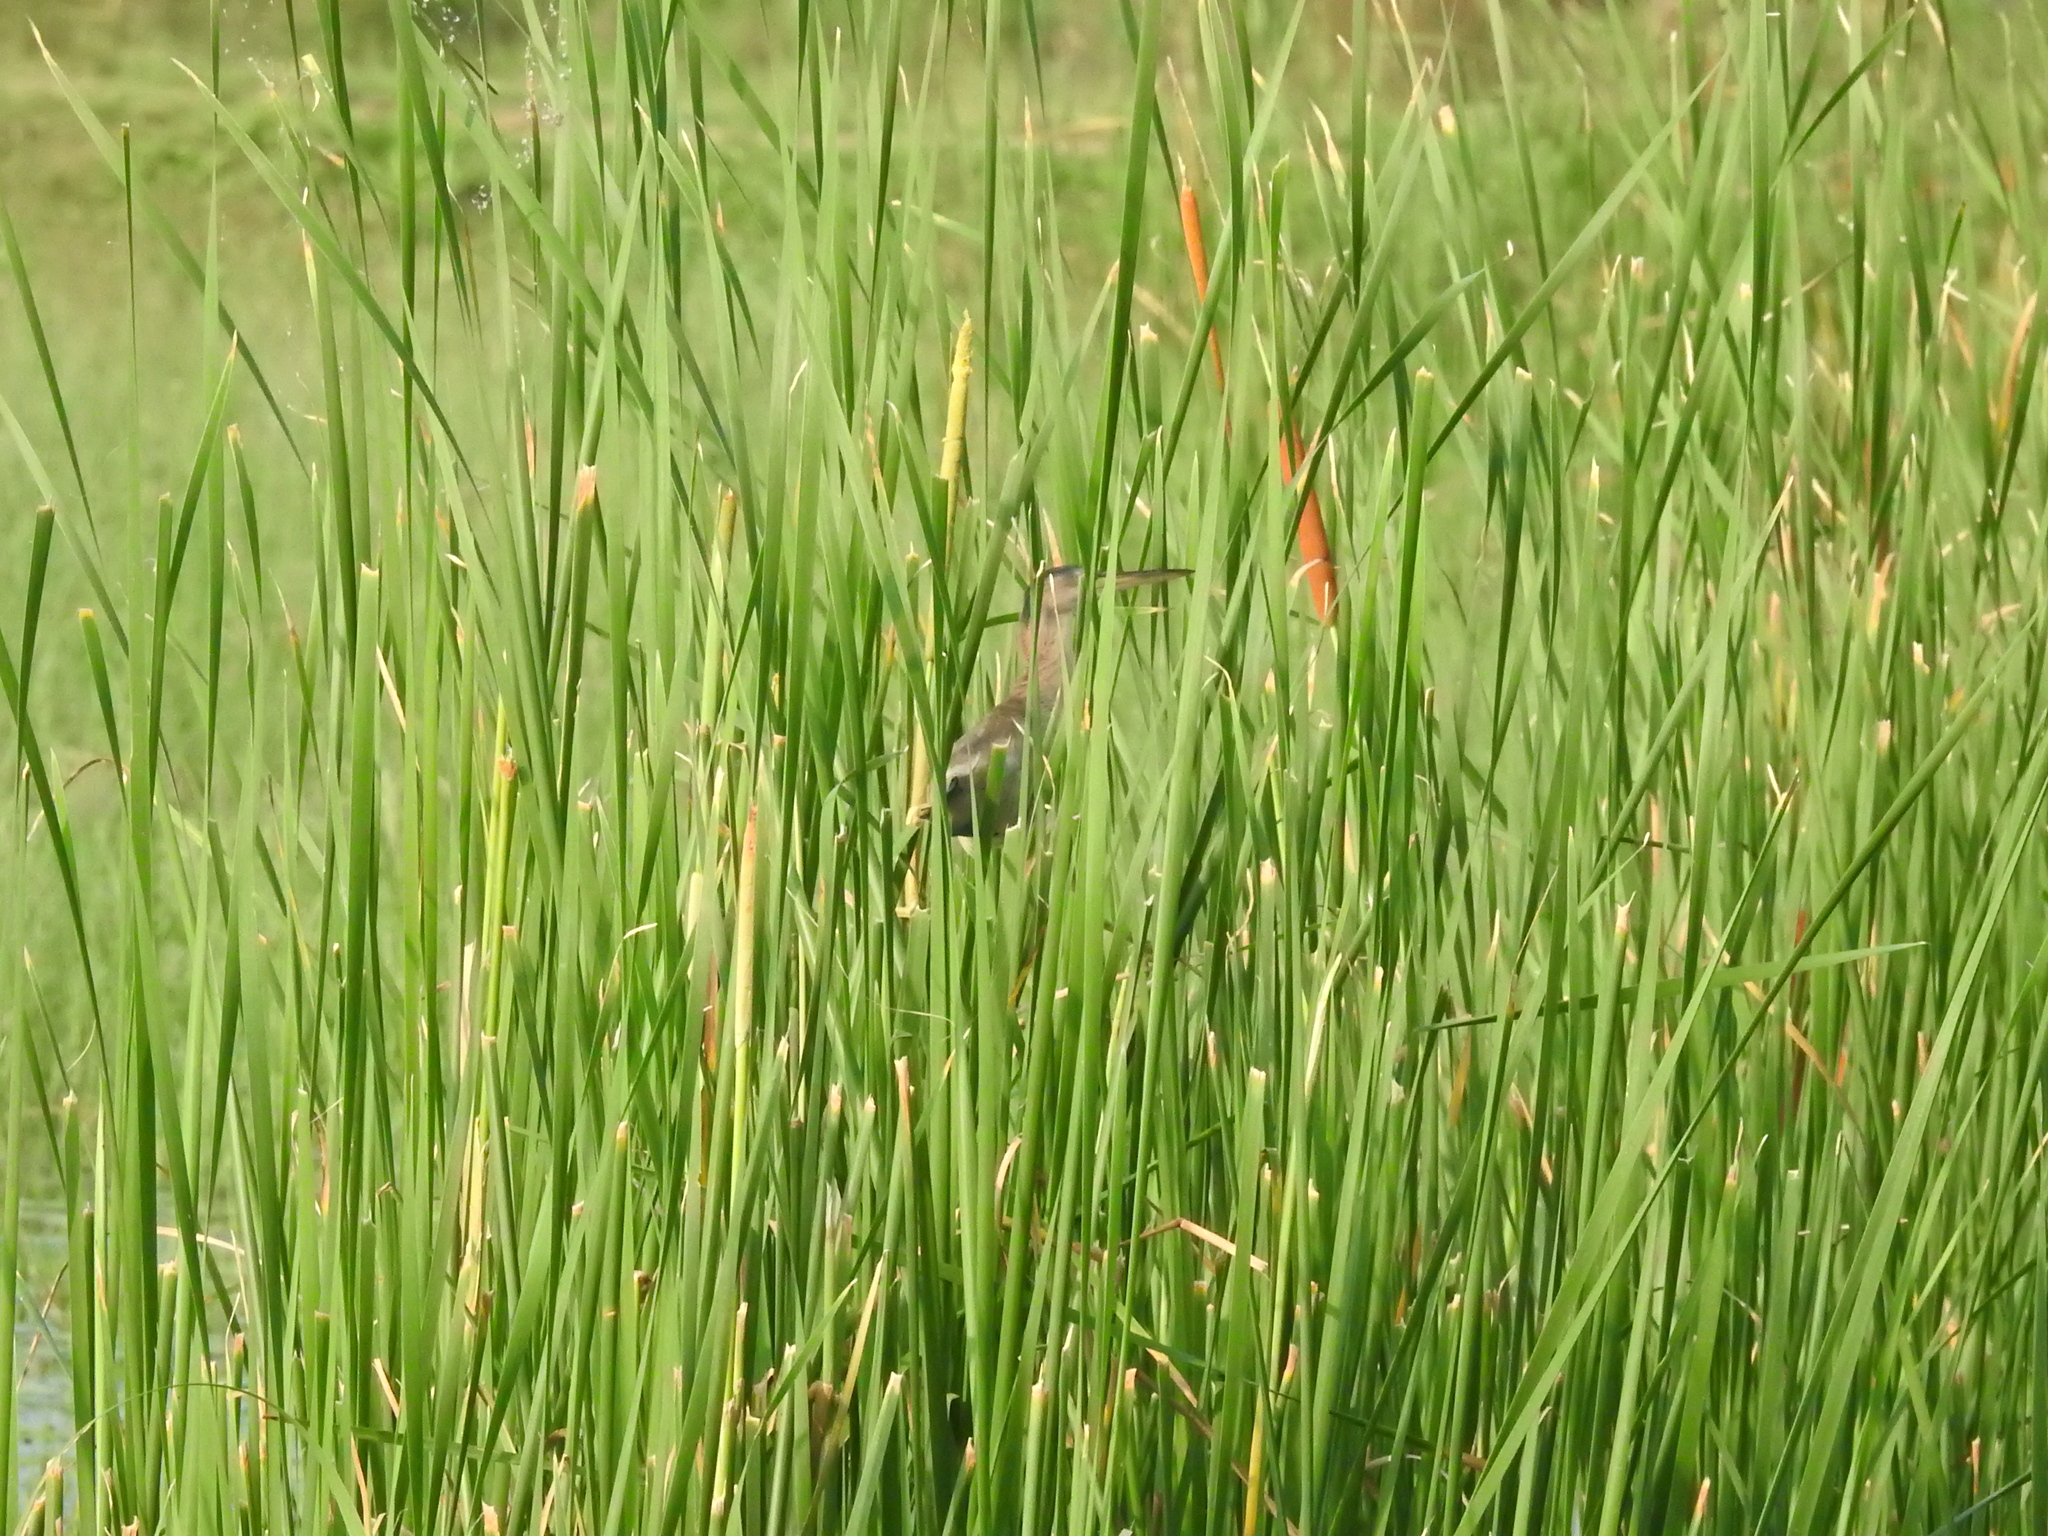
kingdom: Animalia
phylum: Chordata
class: Aves
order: Pelecaniformes
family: Ardeidae
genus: Ixobrychus
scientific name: Ixobrychus sinensis
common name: Yellow bittern
